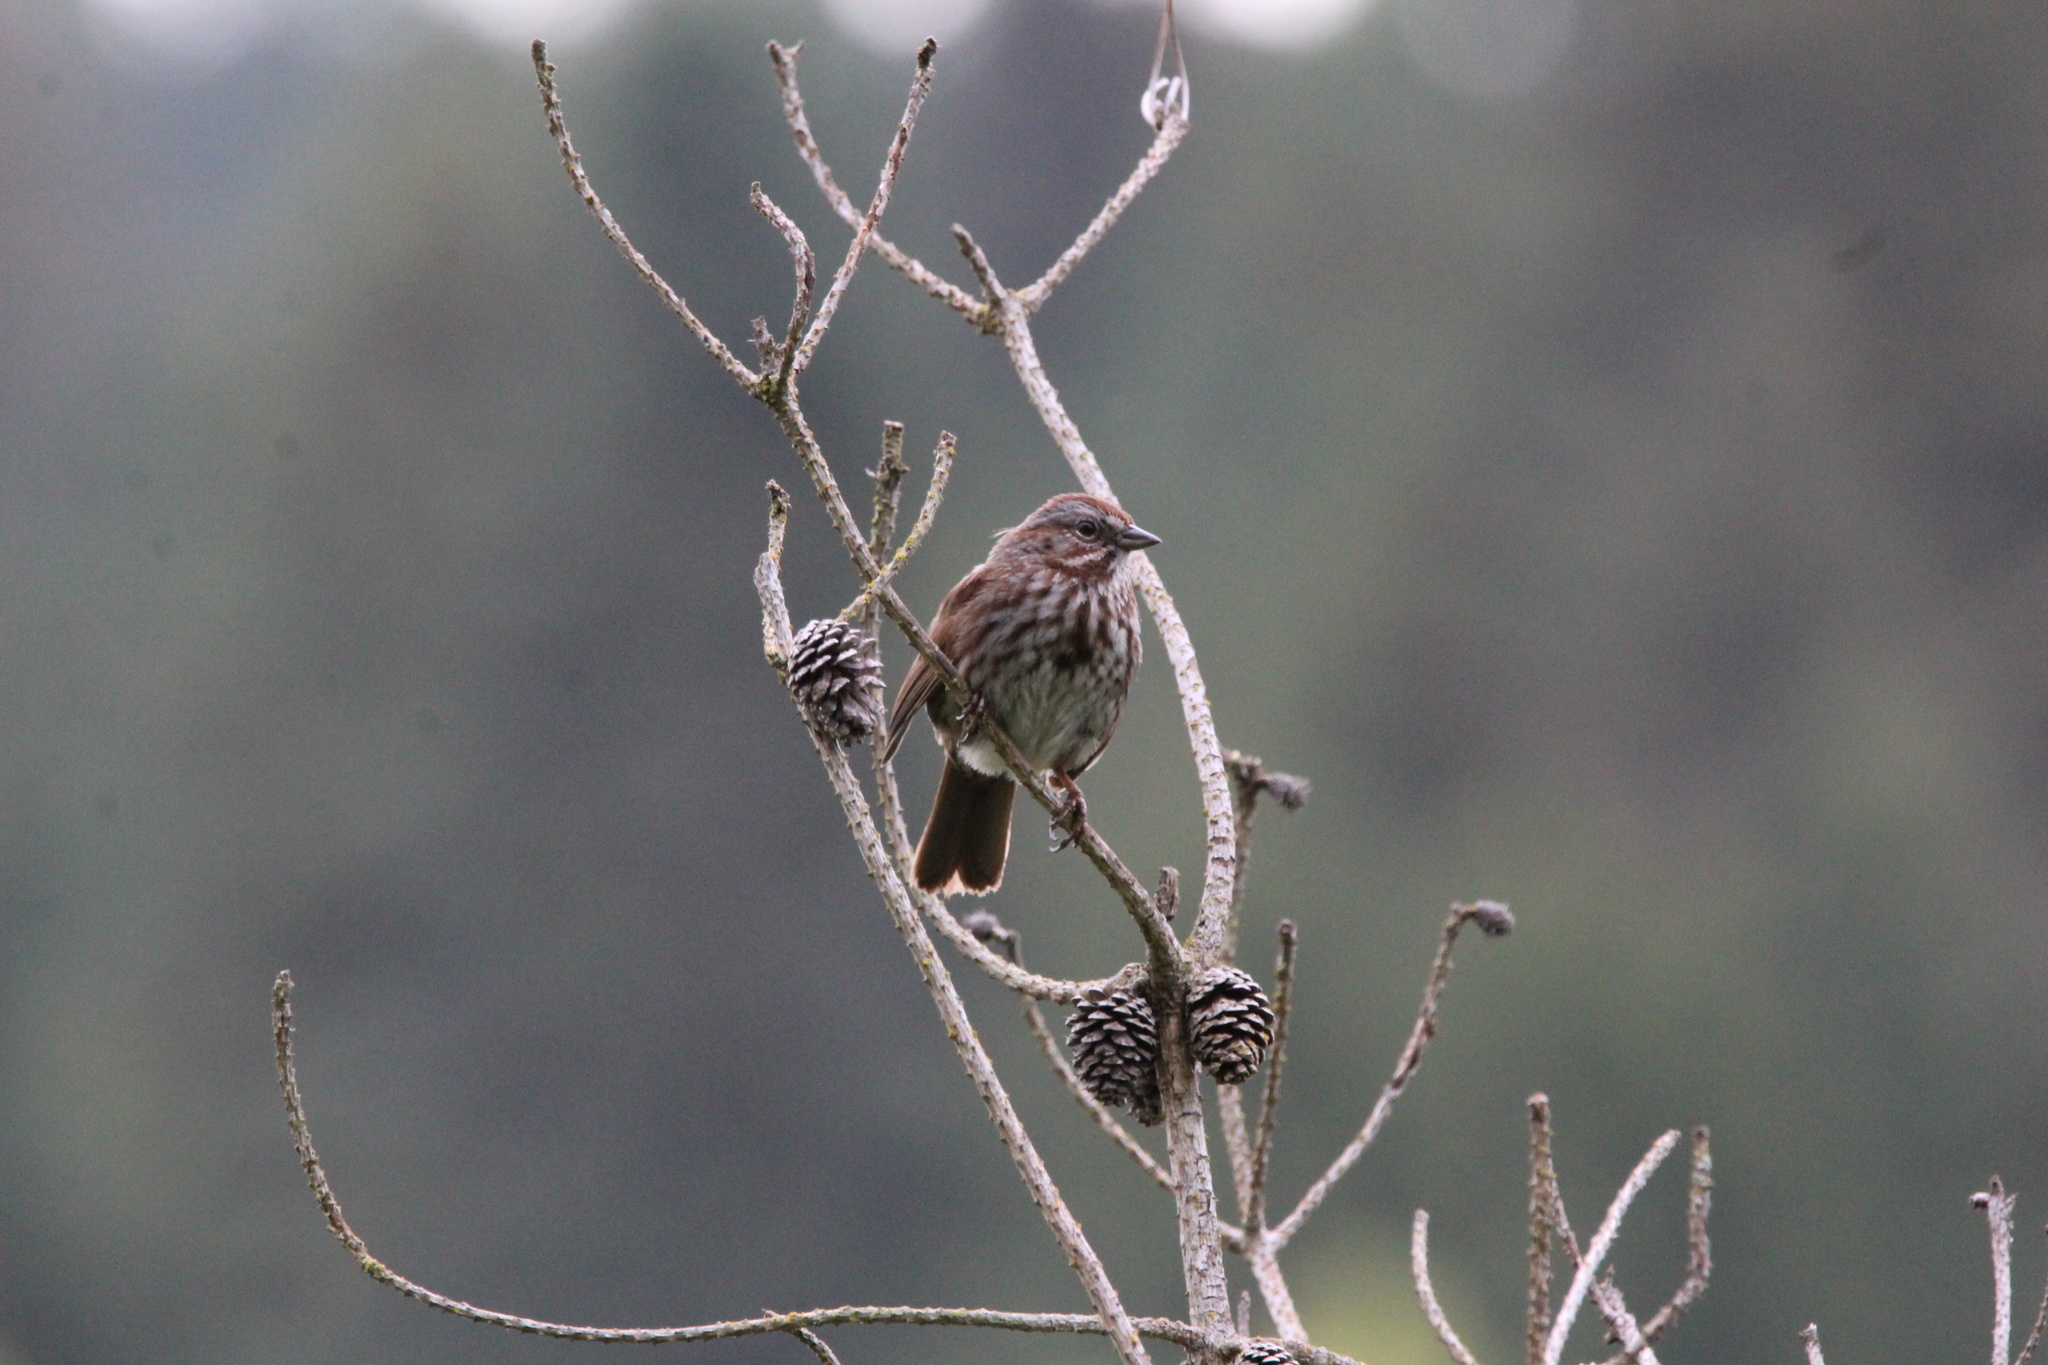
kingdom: Animalia
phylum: Chordata
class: Aves
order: Passeriformes
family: Passerellidae
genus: Melospiza
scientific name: Melospiza melodia
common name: Song sparrow
